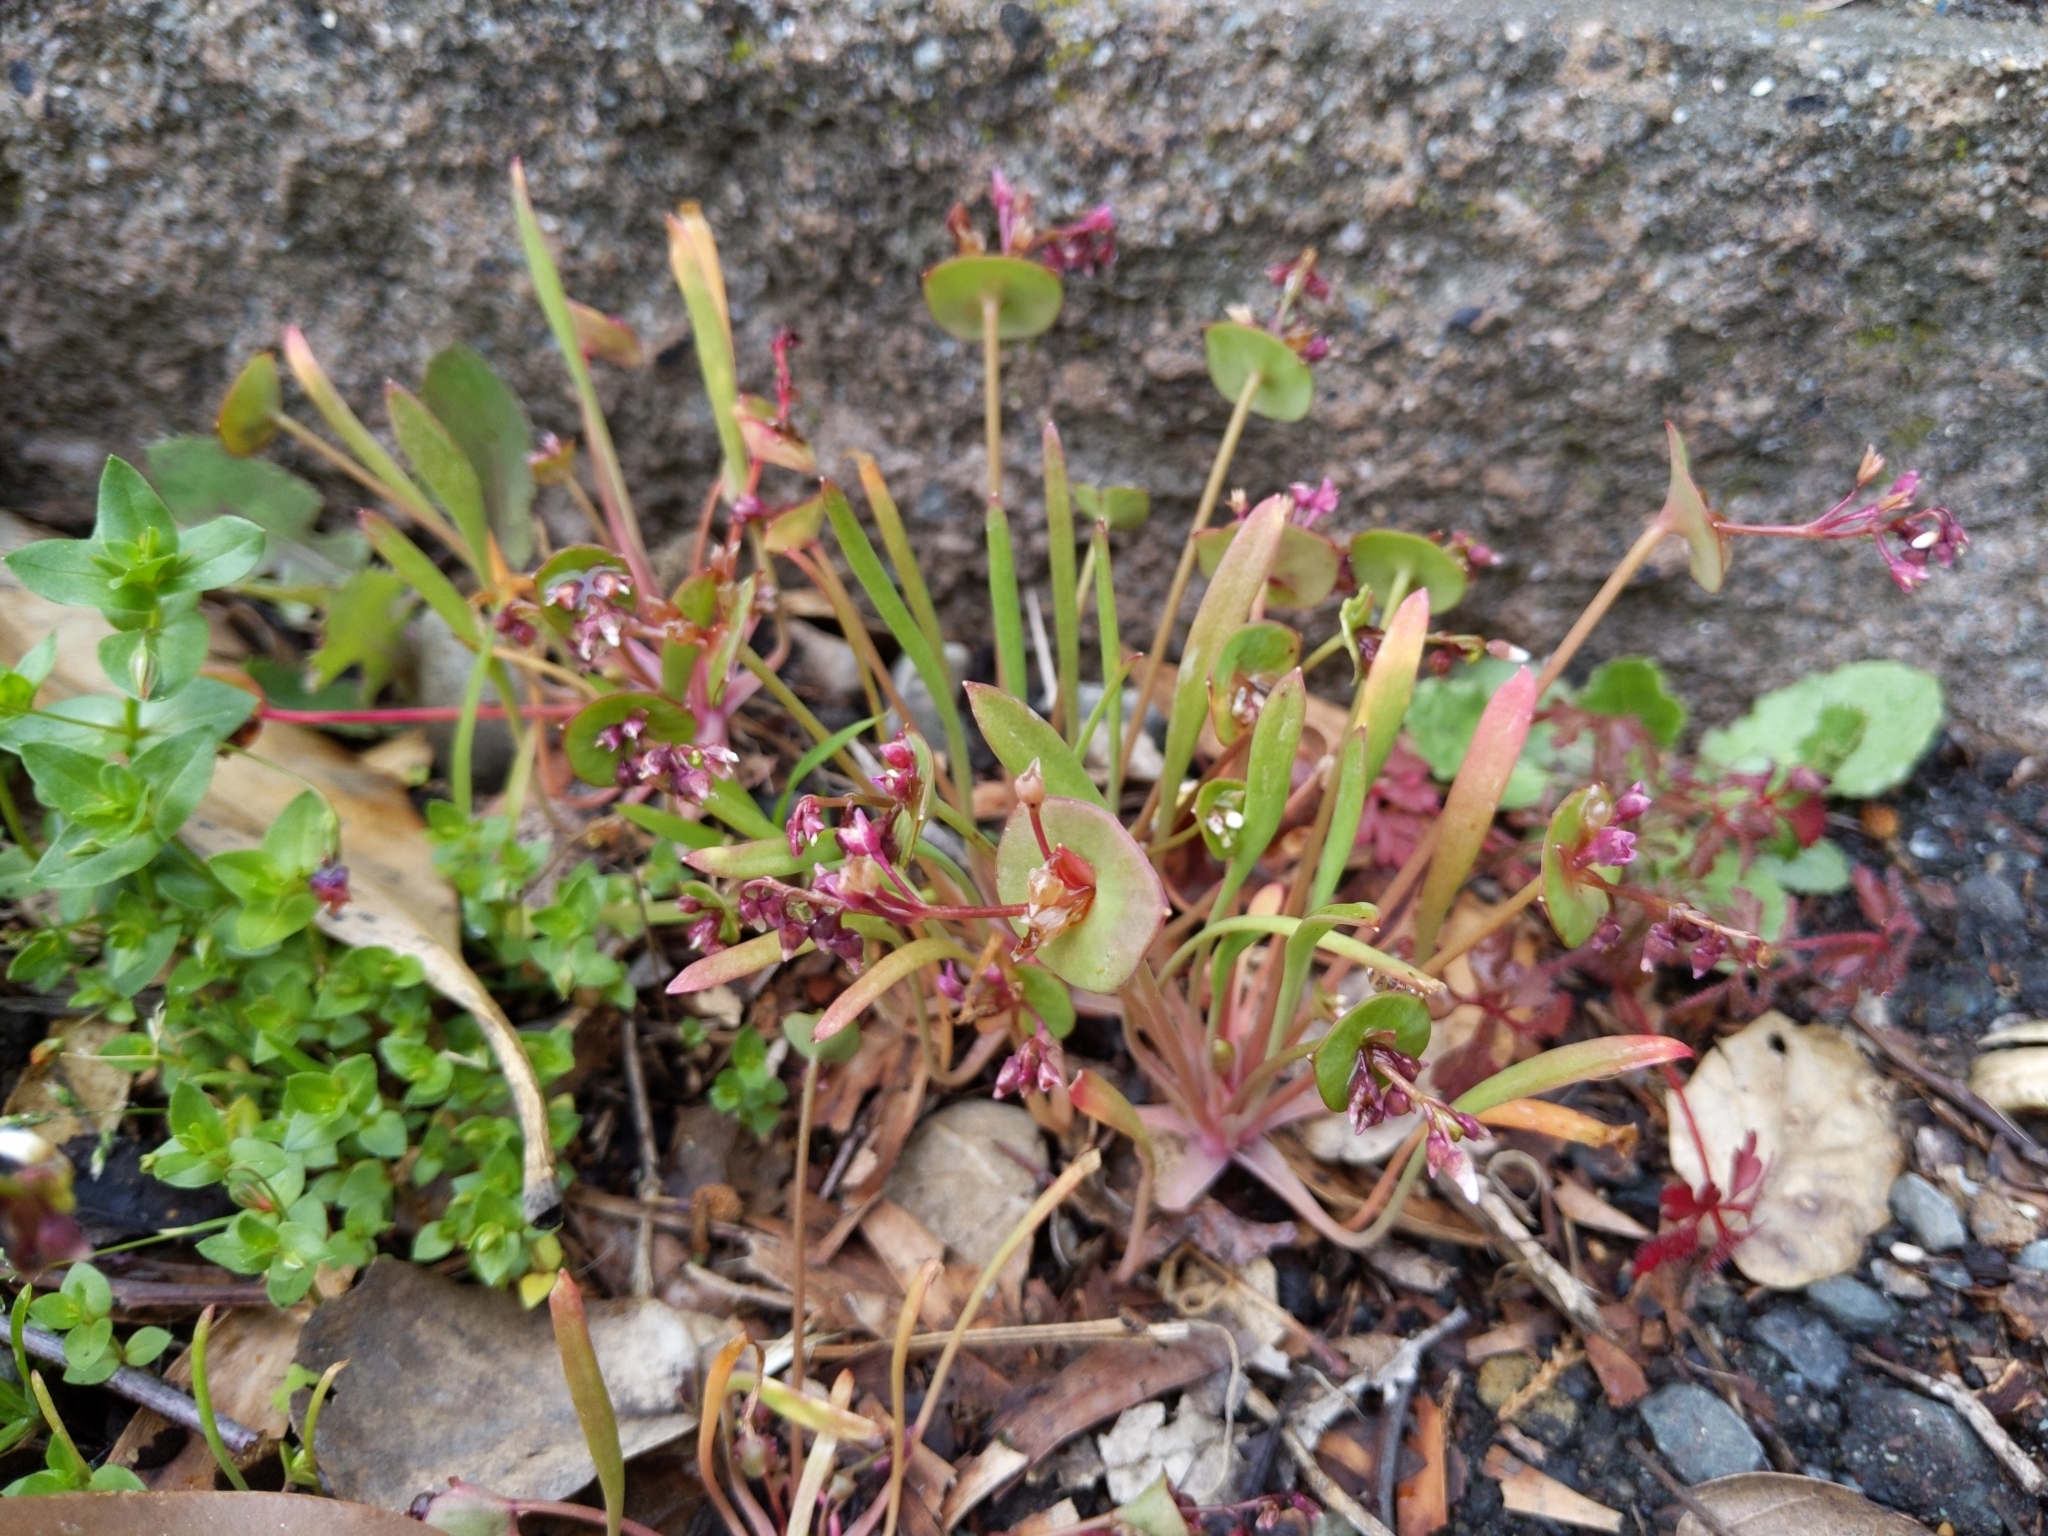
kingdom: Plantae
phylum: Tracheophyta
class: Magnoliopsida
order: Caryophyllales
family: Montiaceae
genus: Claytonia
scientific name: Claytonia parviflora
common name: Indian-lettuce
